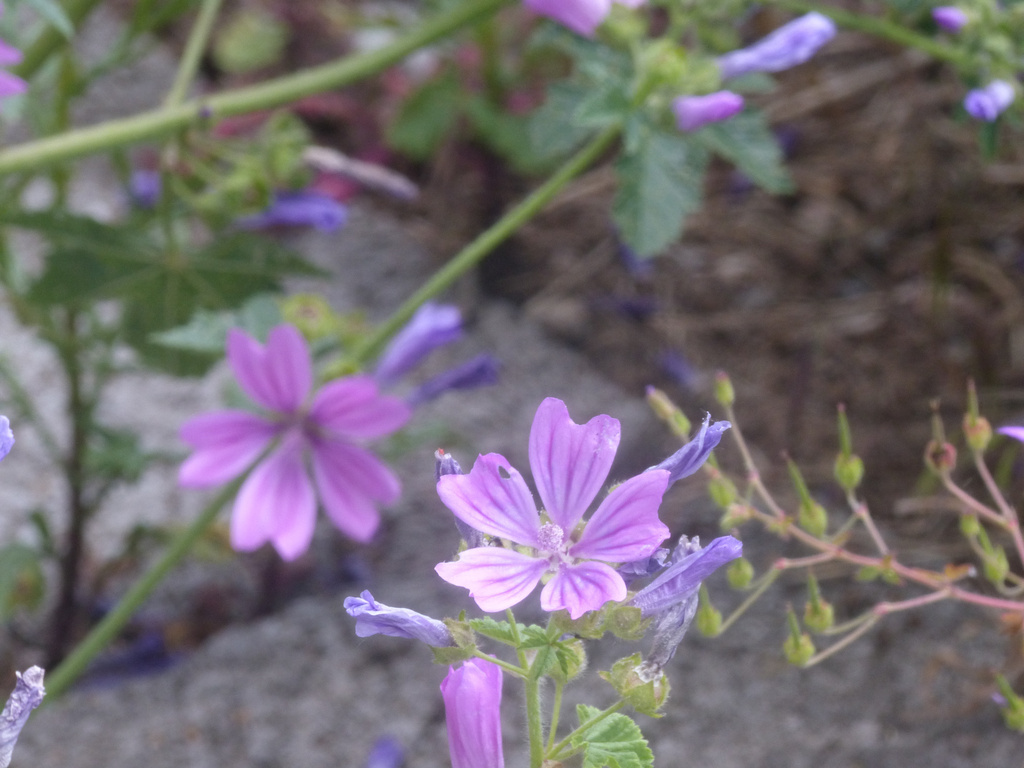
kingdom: Plantae
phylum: Tracheophyta
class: Magnoliopsida
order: Malvales
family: Malvaceae
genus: Malva
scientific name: Malva sylvestris
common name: Common mallow
